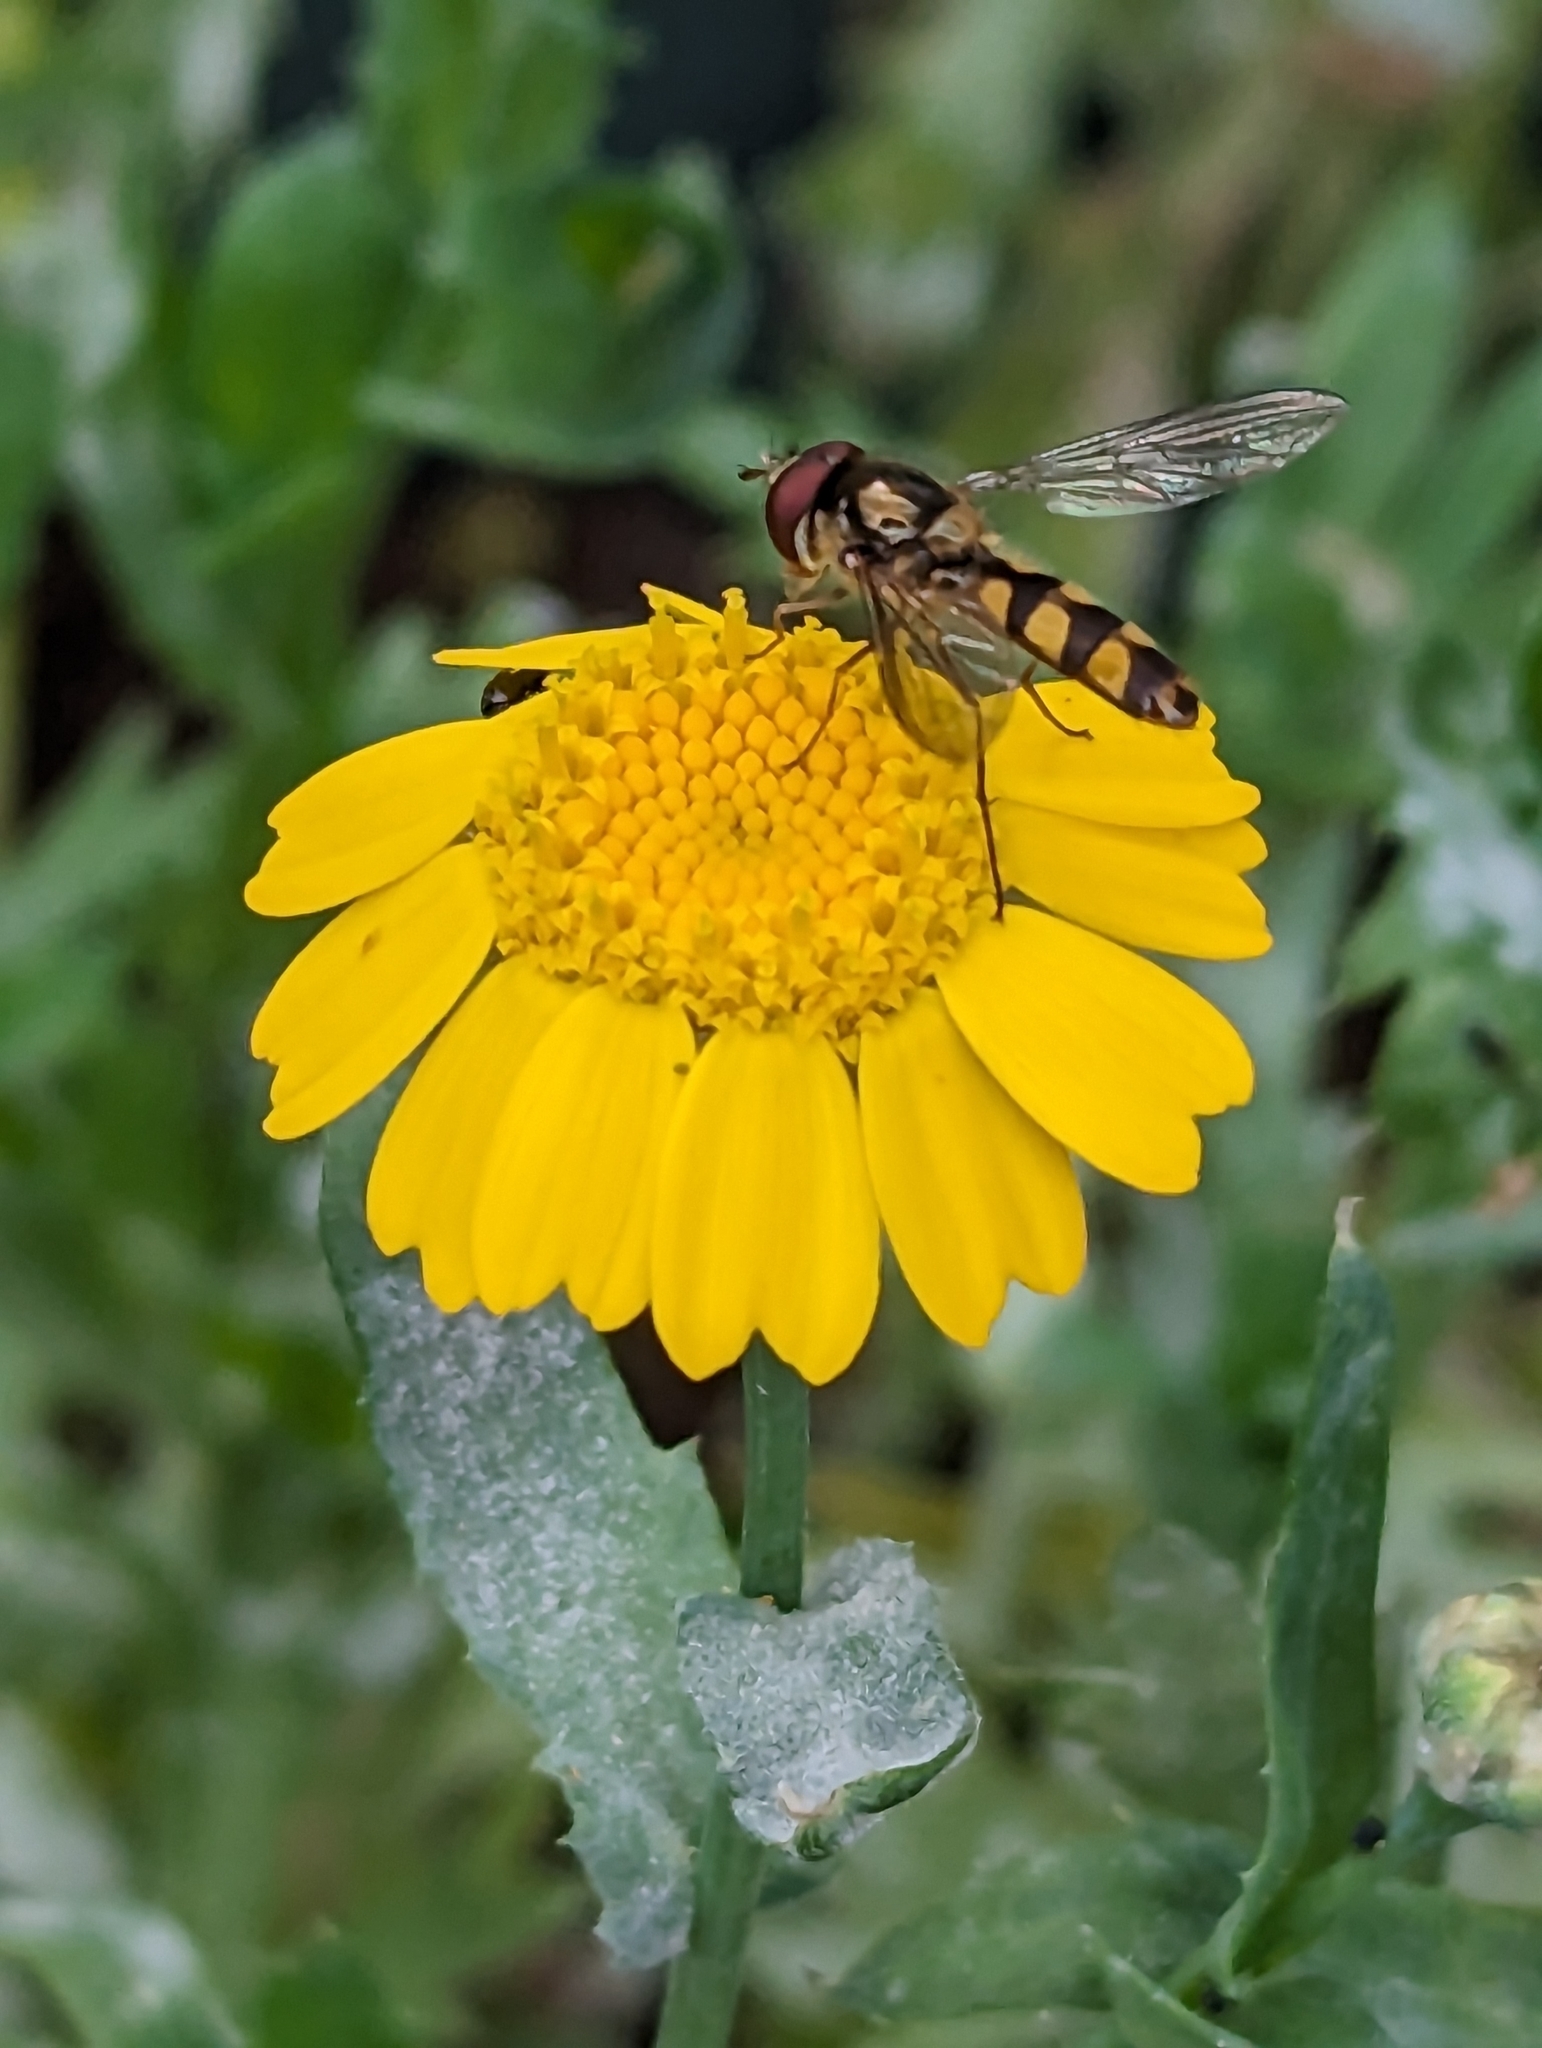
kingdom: Animalia
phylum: Arthropoda
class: Insecta
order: Diptera
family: Syrphidae
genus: Meliscaeva
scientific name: Meliscaeva auricollis
